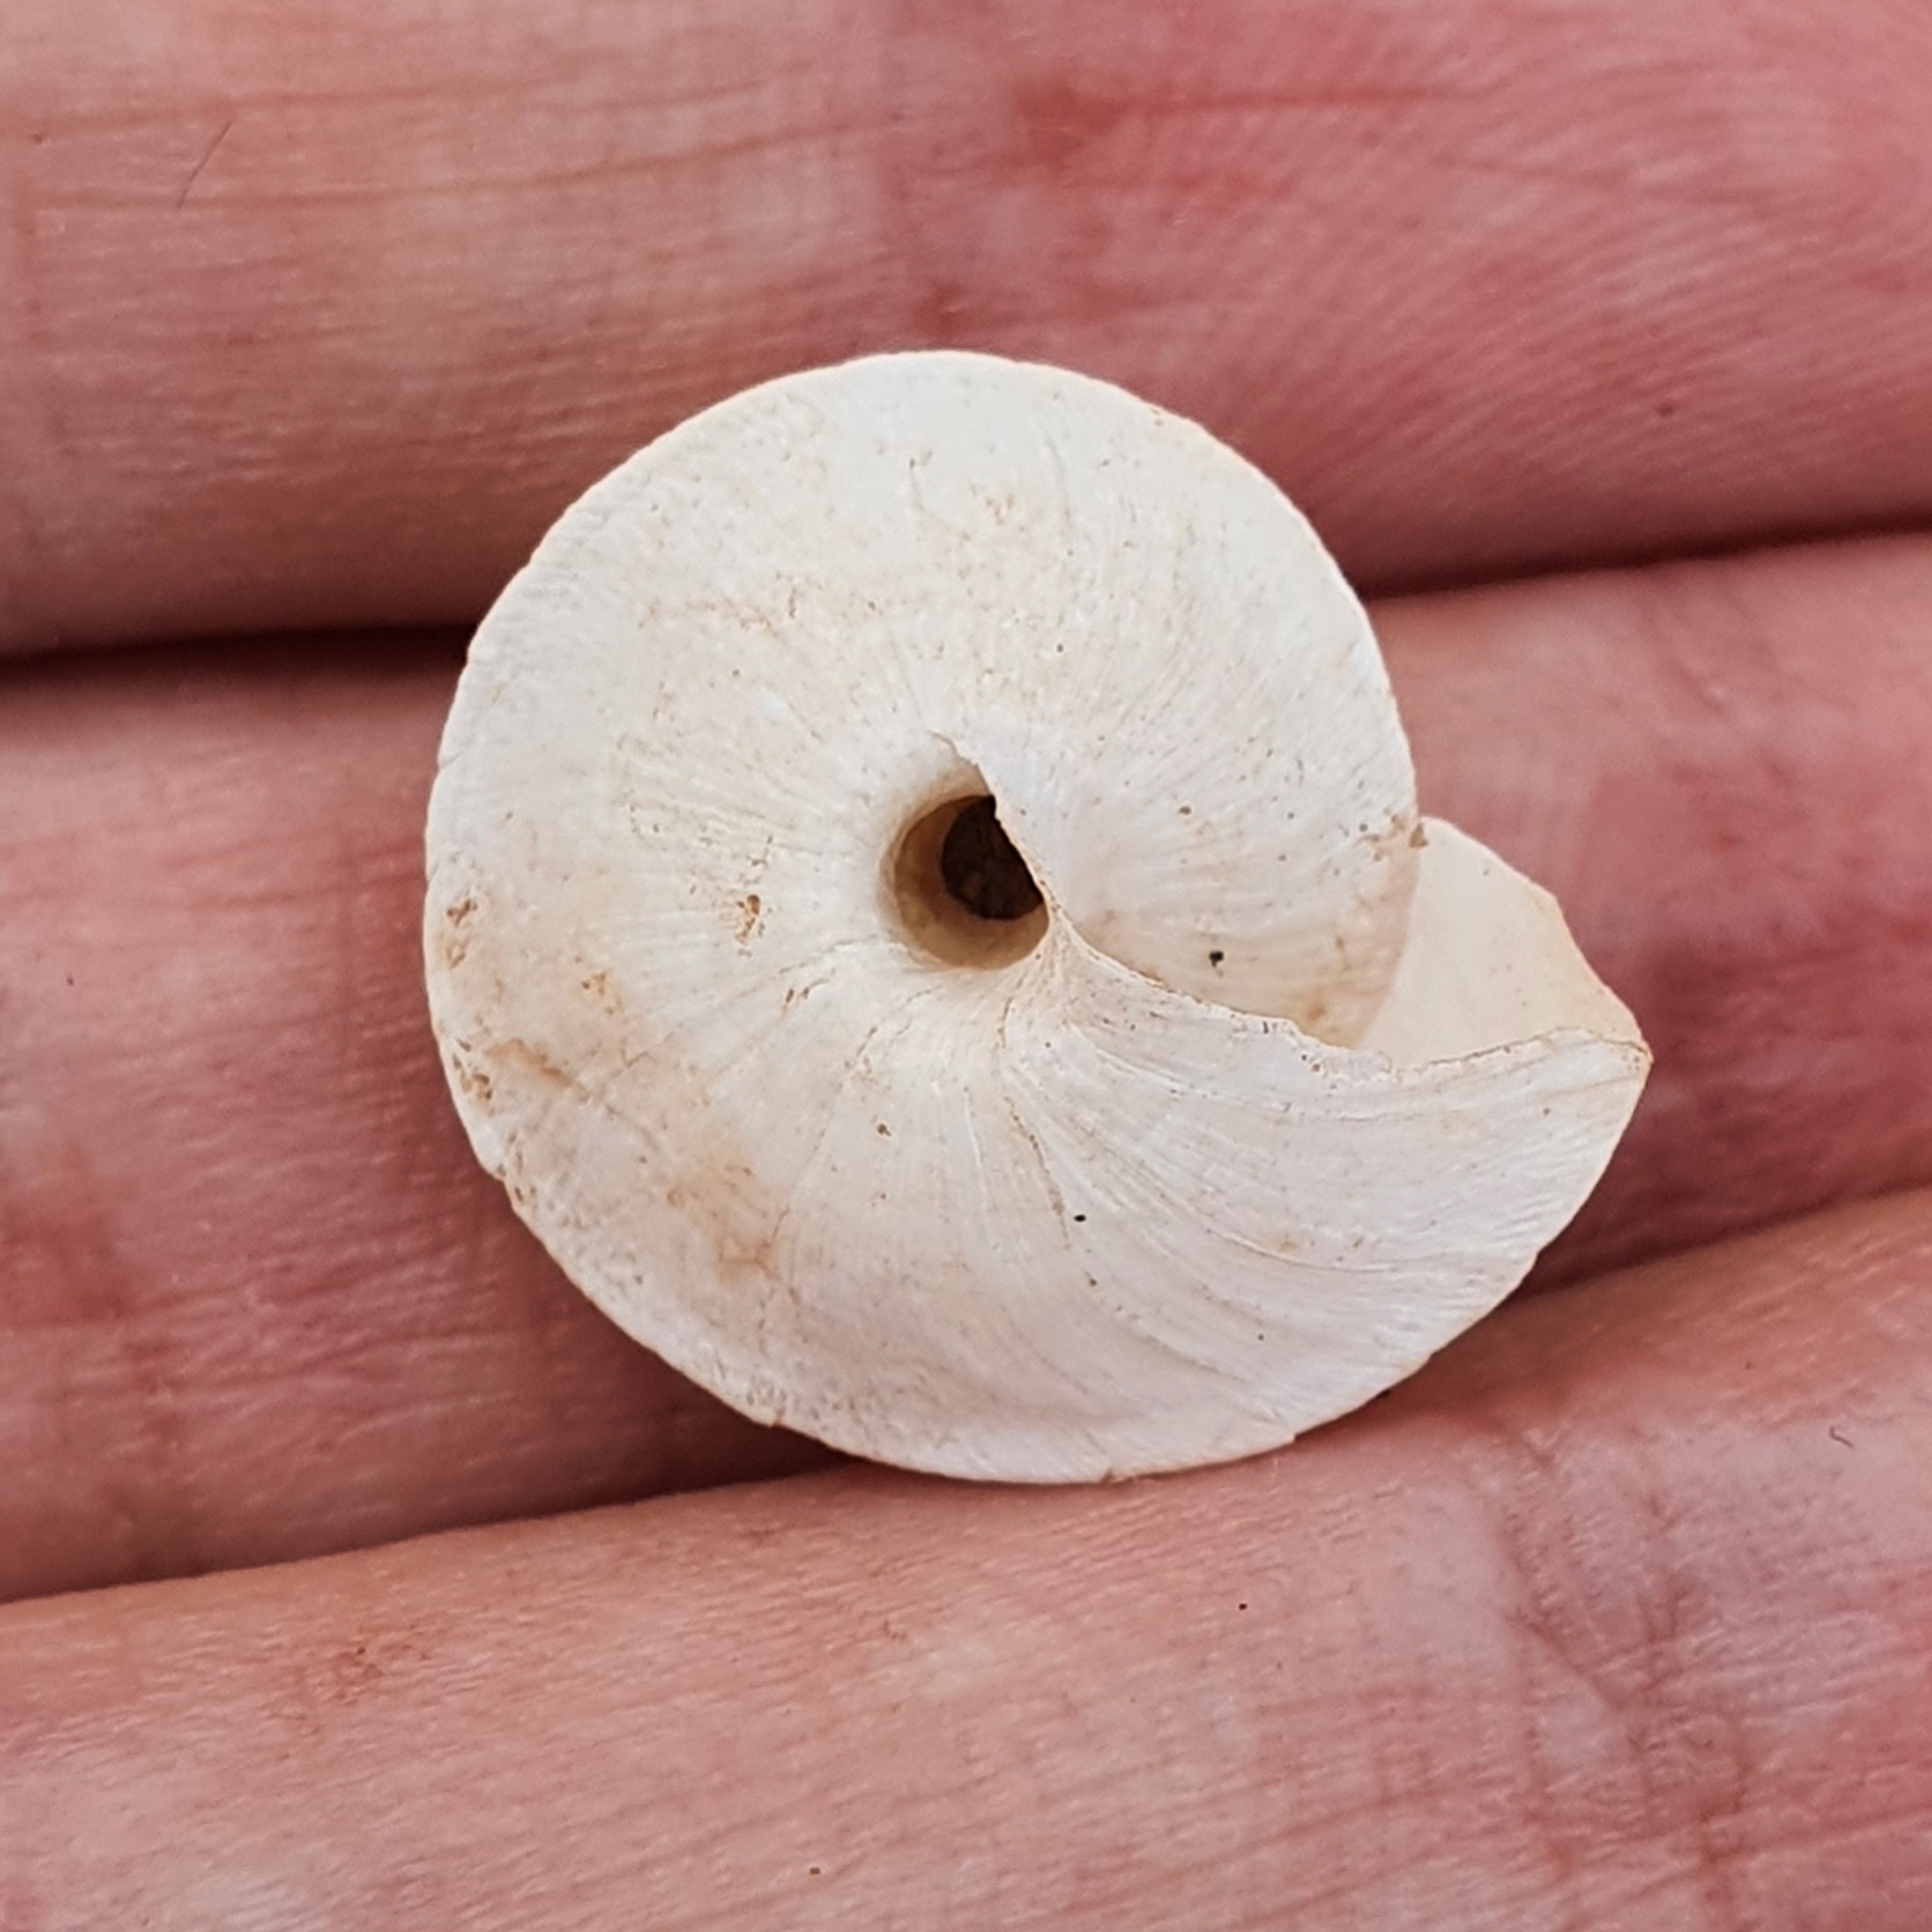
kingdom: Animalia
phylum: Mollusca
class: Gastropoda
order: Stylommatophora
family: Sphincterochilidae
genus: Sphincterochila
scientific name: Sphincterochila otthiana
